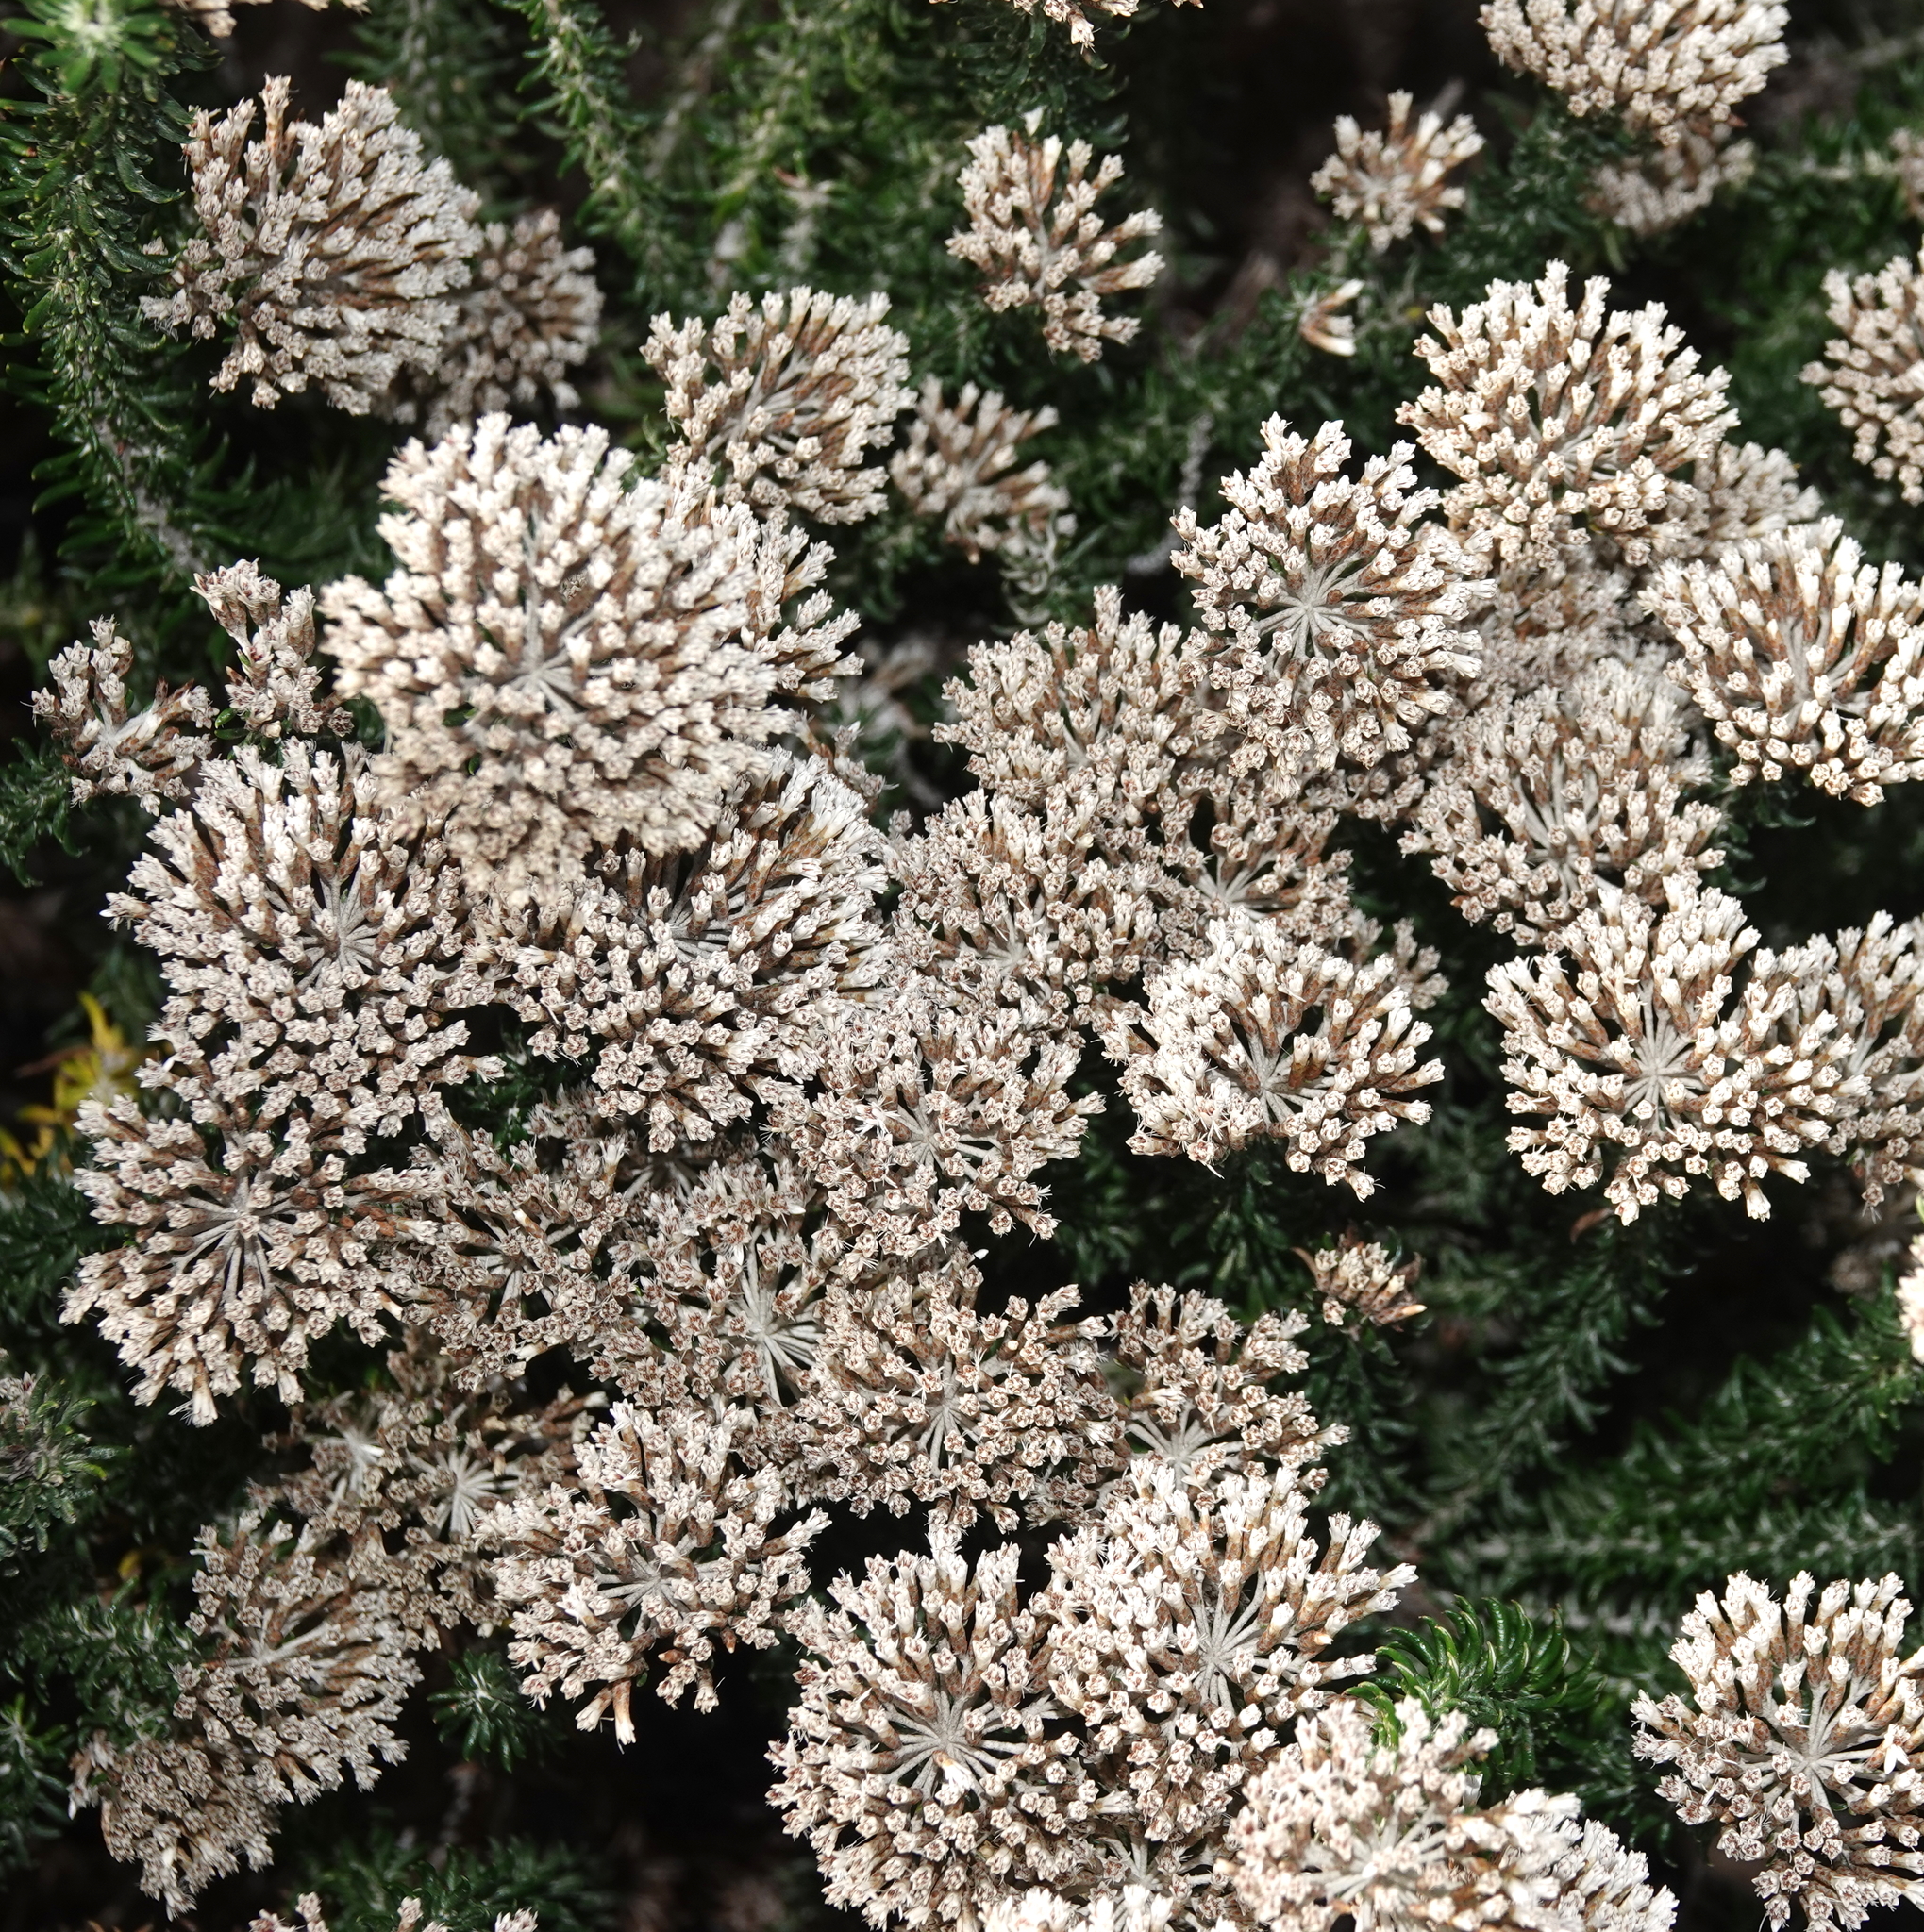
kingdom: Plantae
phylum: Tracheophyta
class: Magnoliopsida
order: Asterales
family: Asteraceae
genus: Metalasia
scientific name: Metalasia muricata
